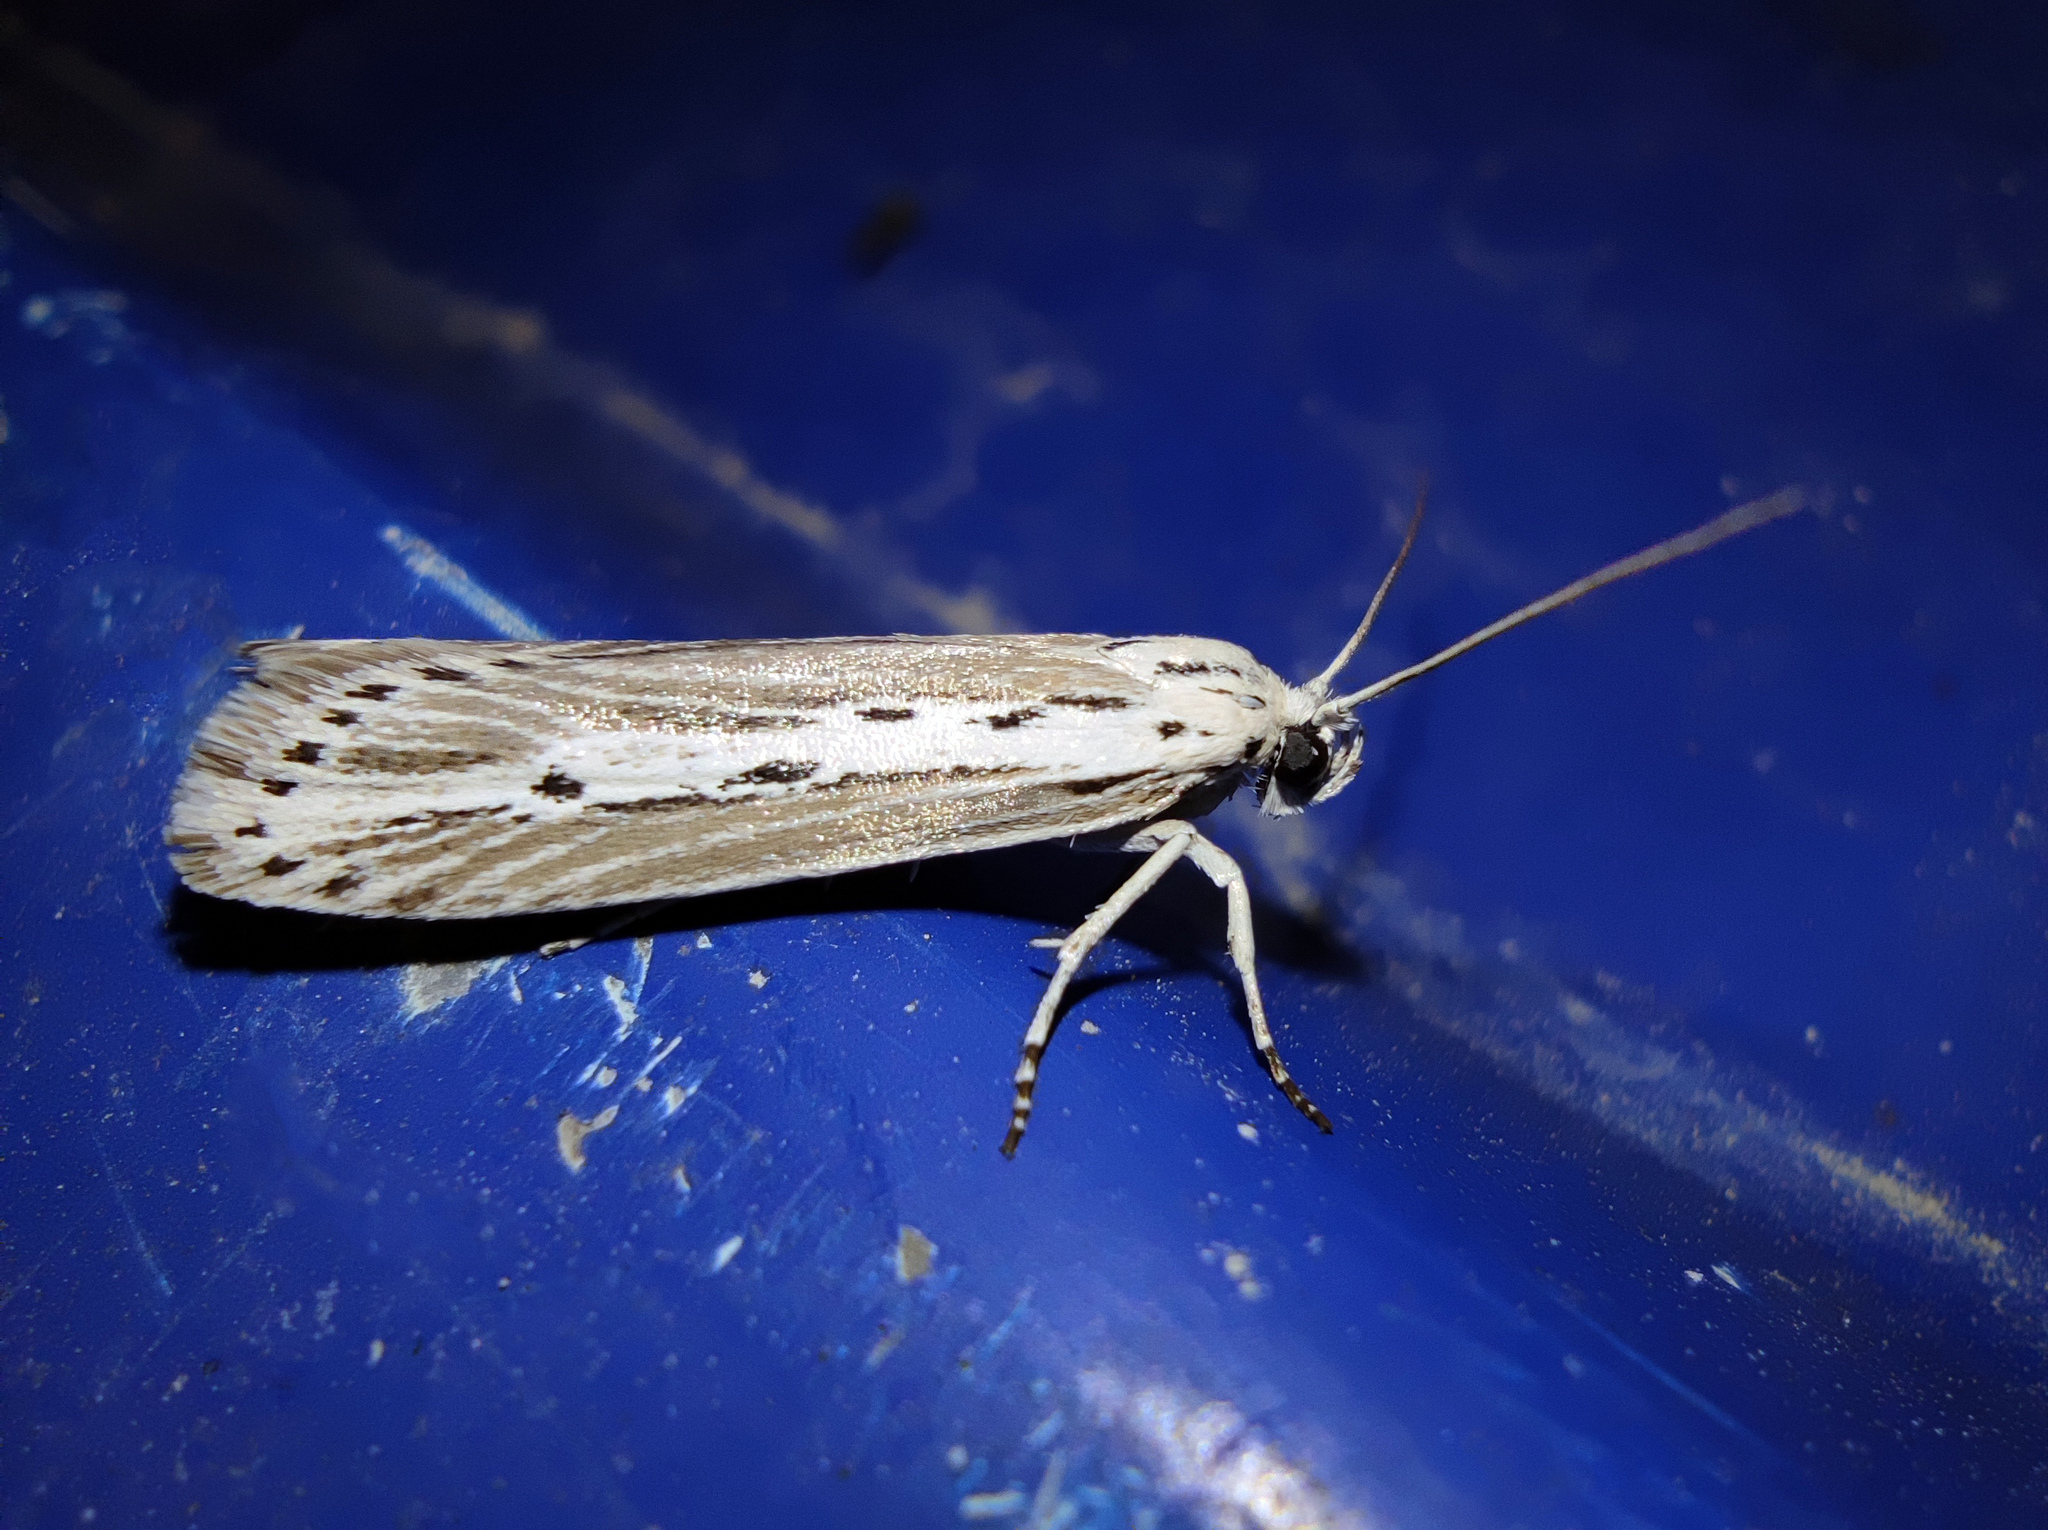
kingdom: Animalia
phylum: Arthropoda
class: Insecta
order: Lepidoptera
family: Ethmiidae
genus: Ethmia
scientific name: Ethmia vittalbella
